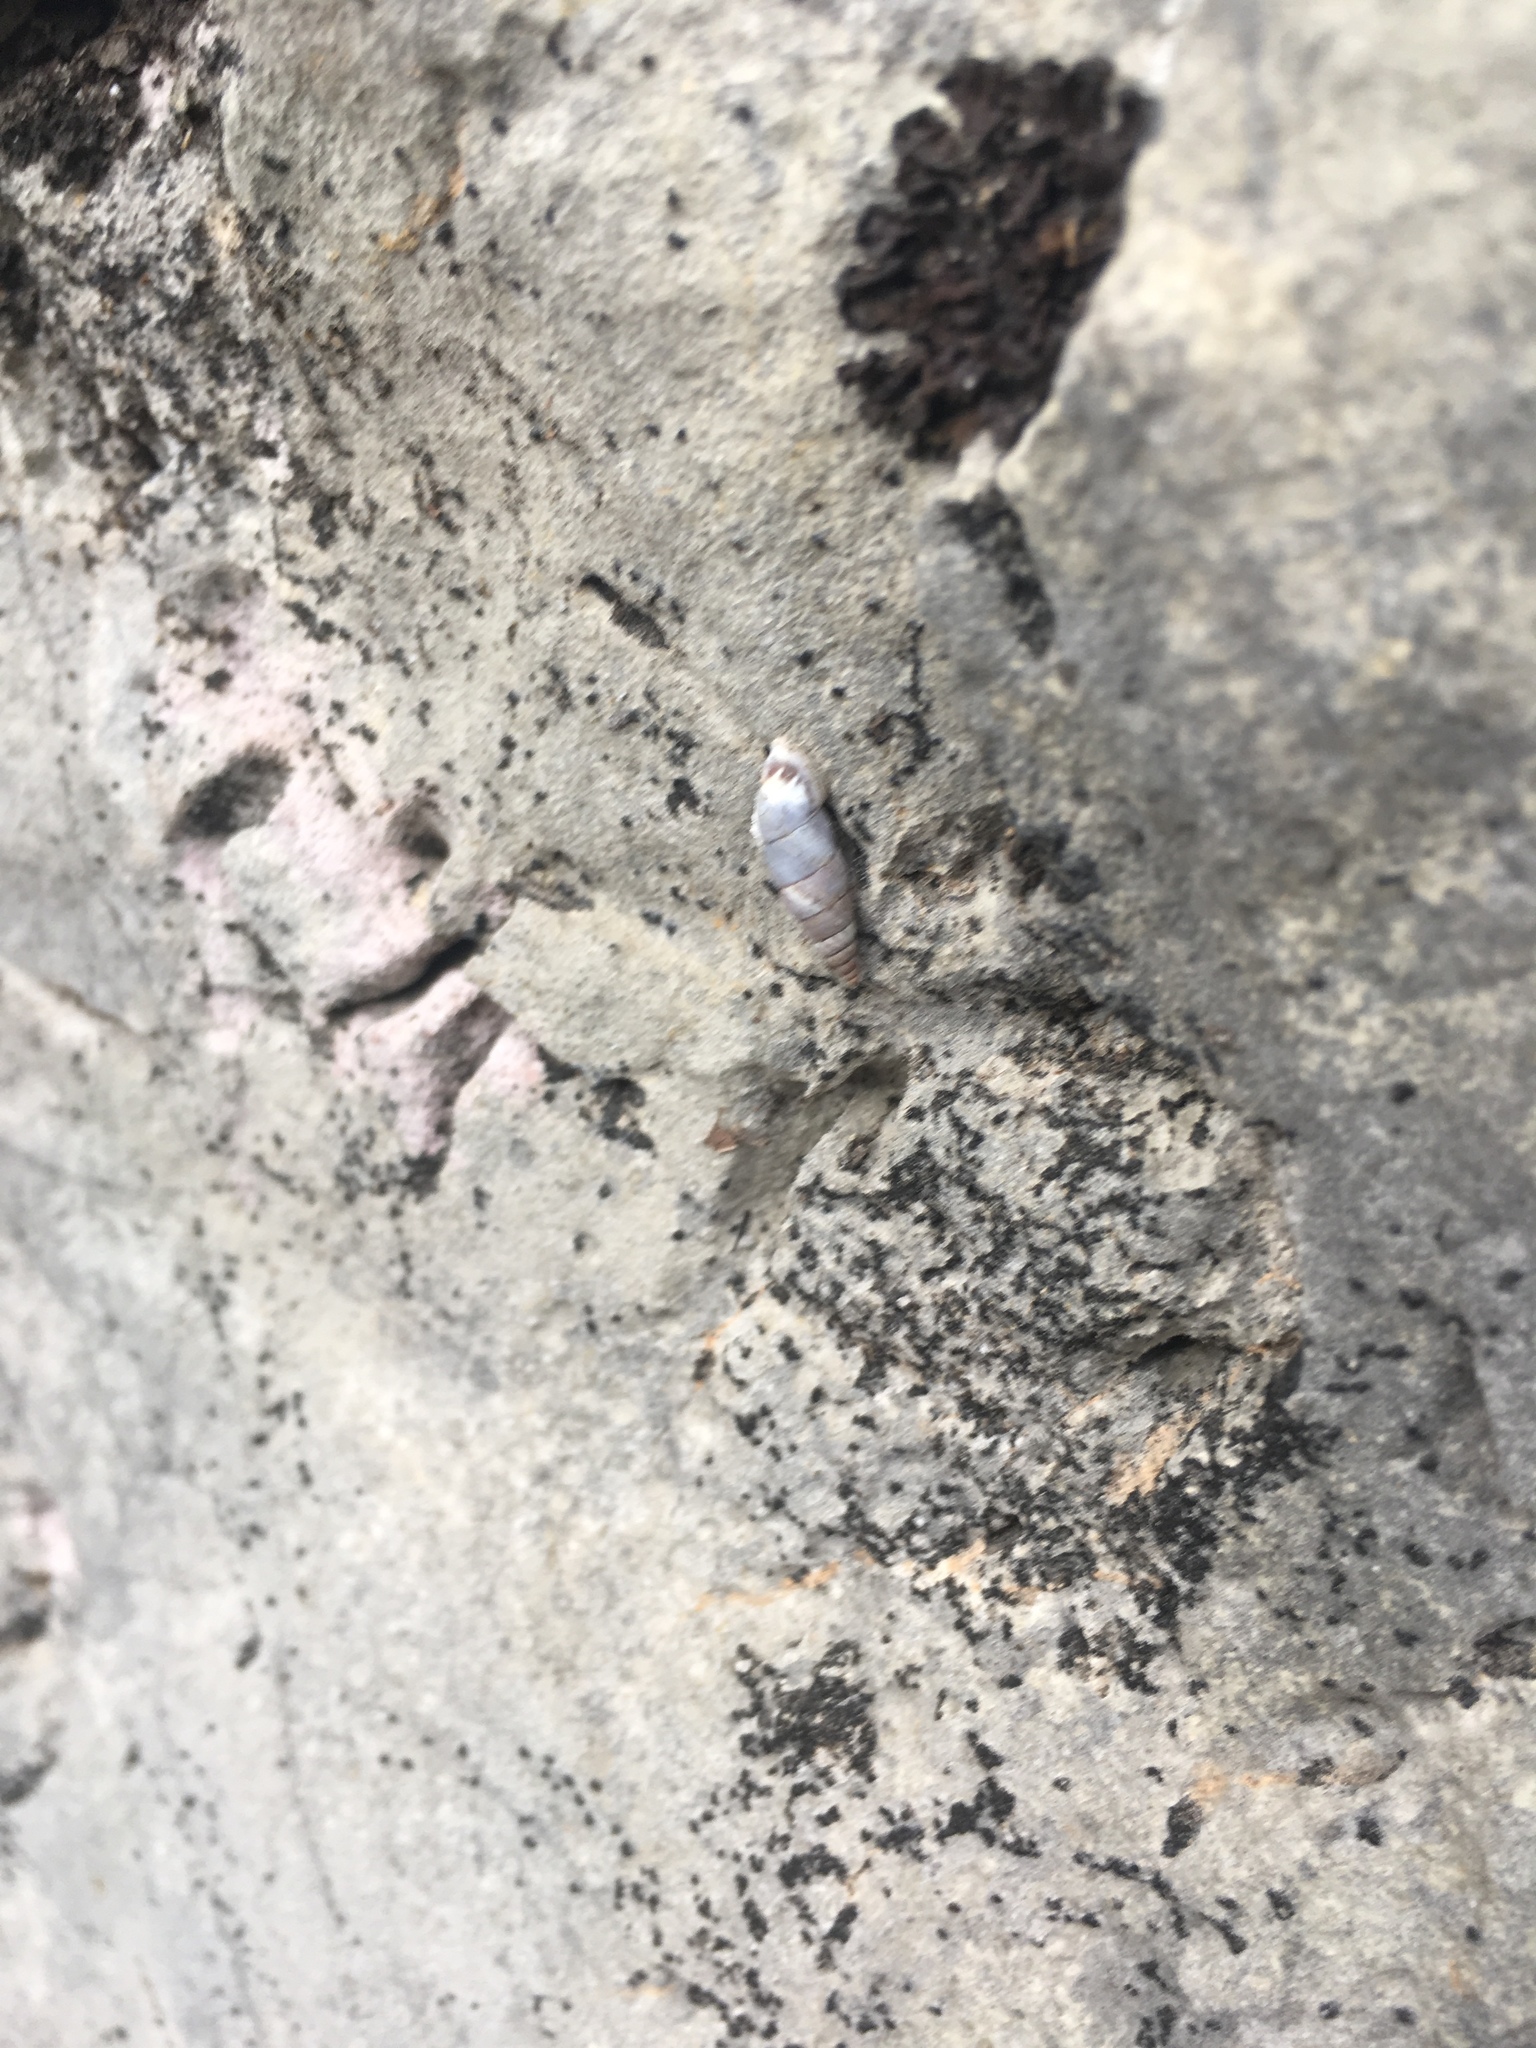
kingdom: Animalia
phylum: Mollusca
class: Gastropoda
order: Stylommatophora
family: Chondrinidae
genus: Solatopupa
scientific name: Solatopupa similis
